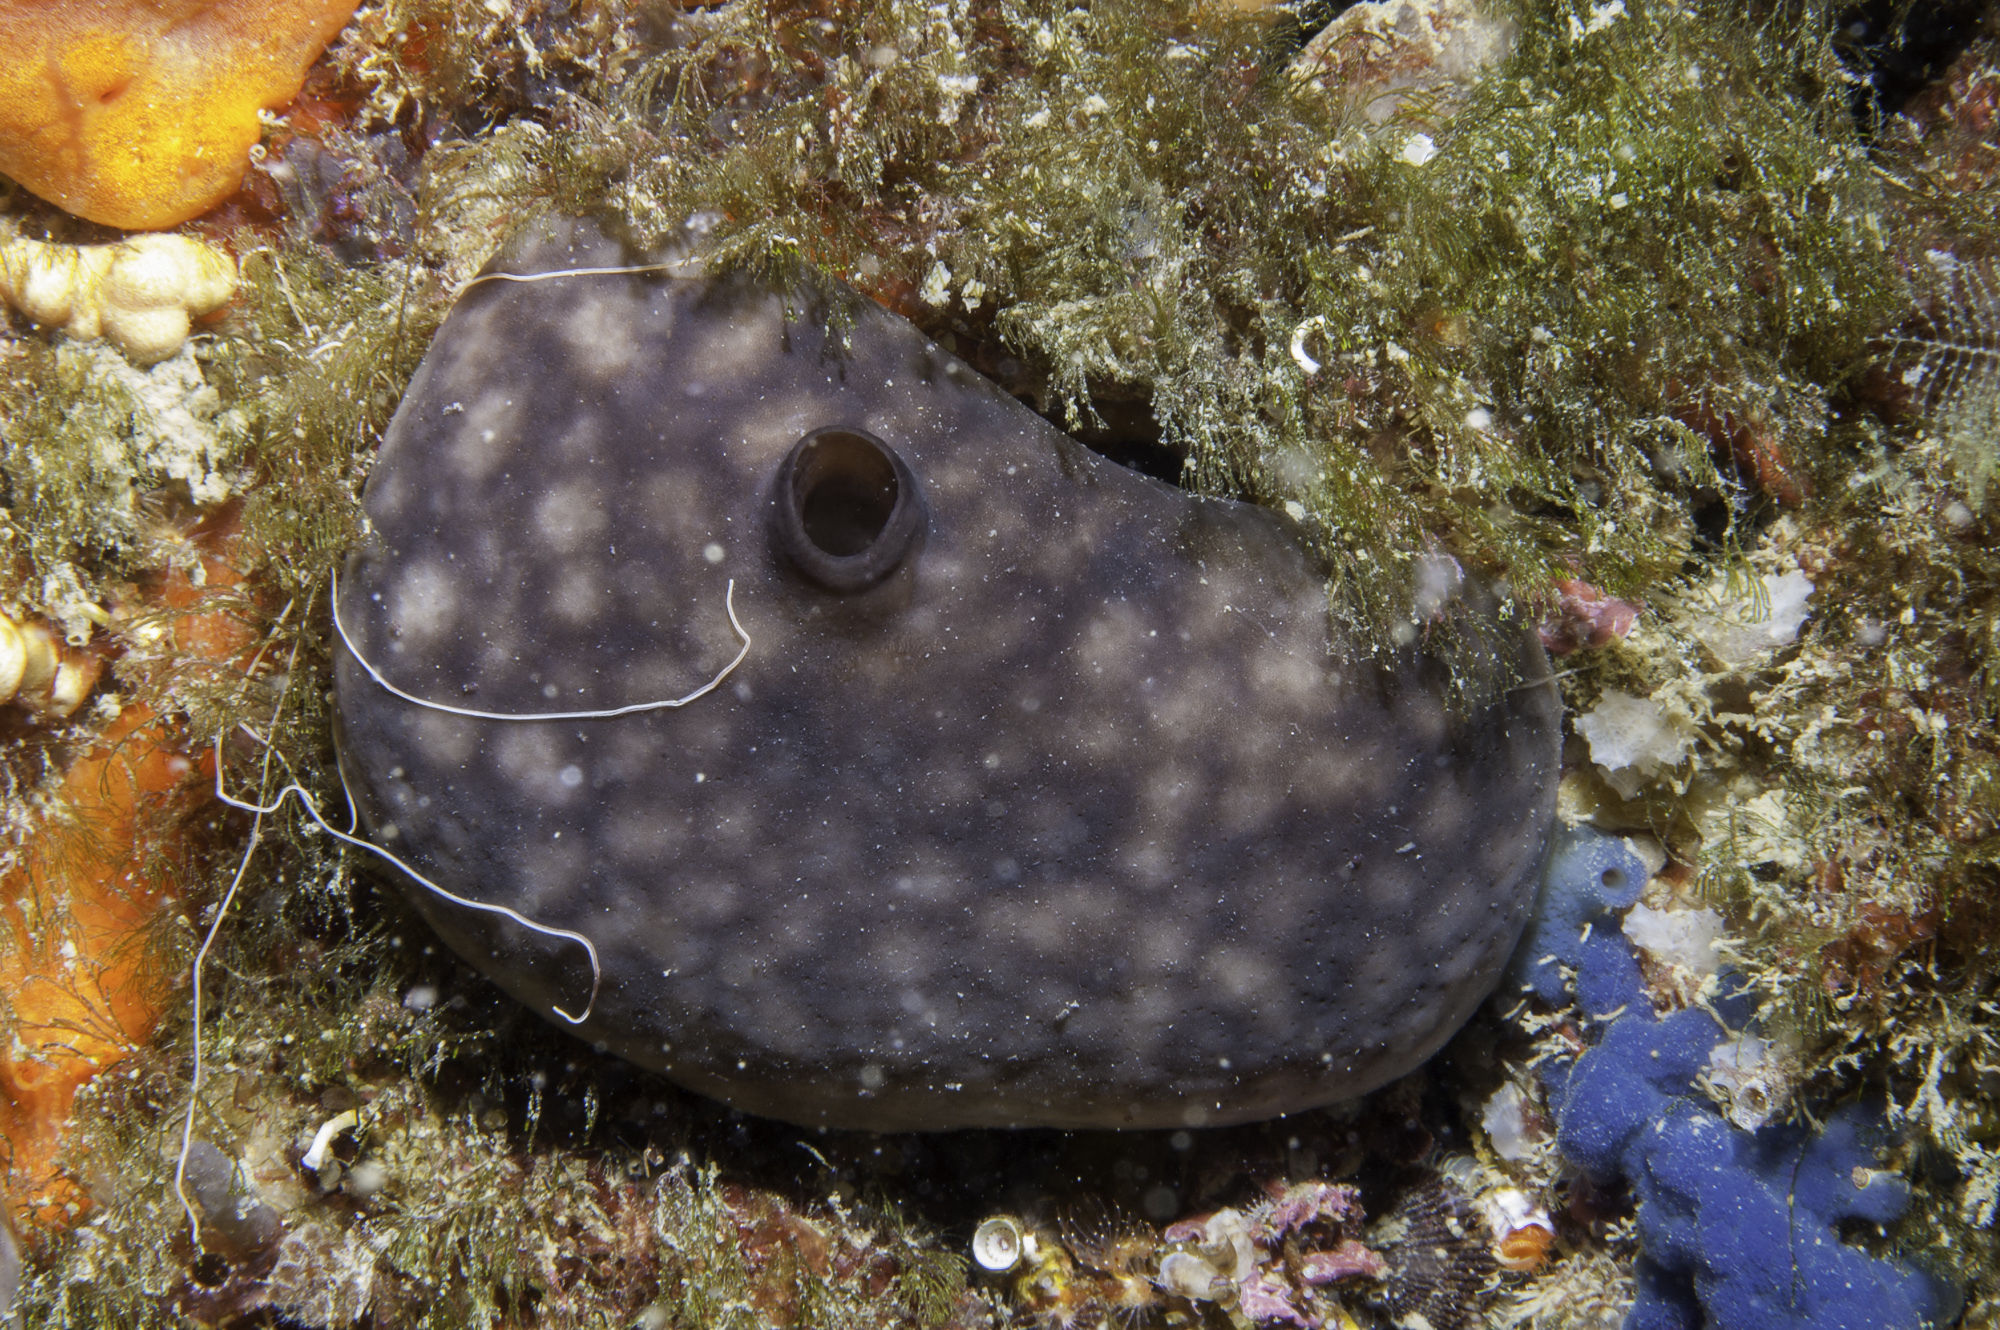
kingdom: Animalia
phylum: Porifera
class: Demospongiae
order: Chondrosiida
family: Chondrosiidae
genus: Chondrosia
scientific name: Chondrosia reniformis
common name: Chicken liver sponge
